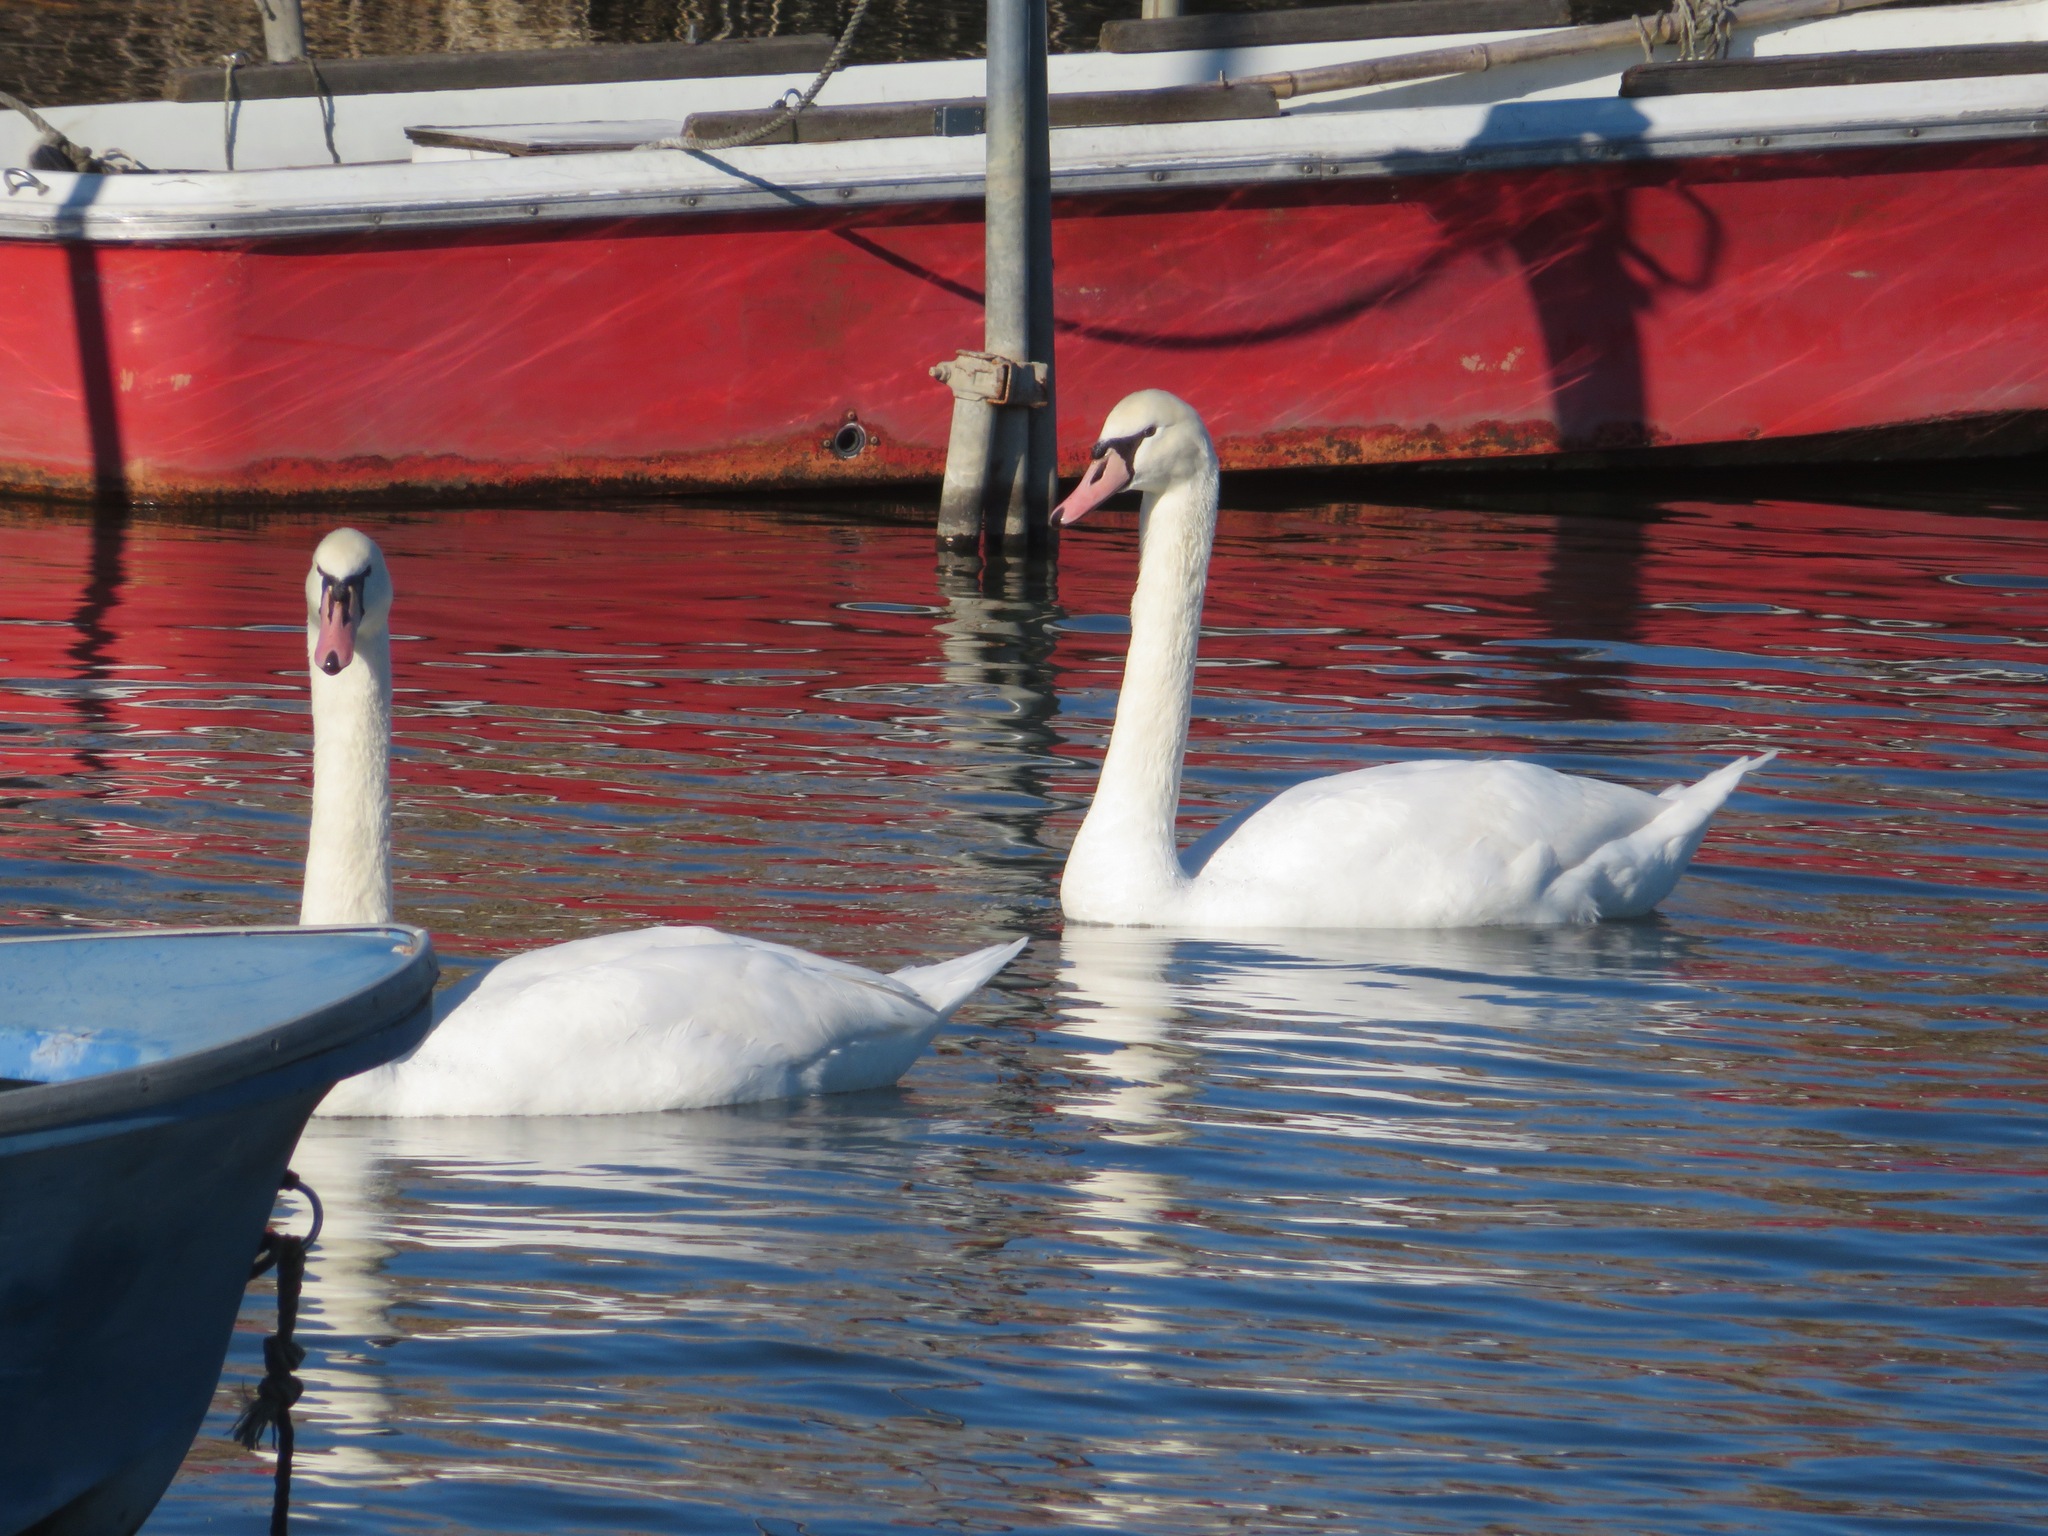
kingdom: Animalia
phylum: Chordata
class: Aves
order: Anseriformes
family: Anatidae
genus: Cygnus
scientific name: Cygnus olor
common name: Mute swan
